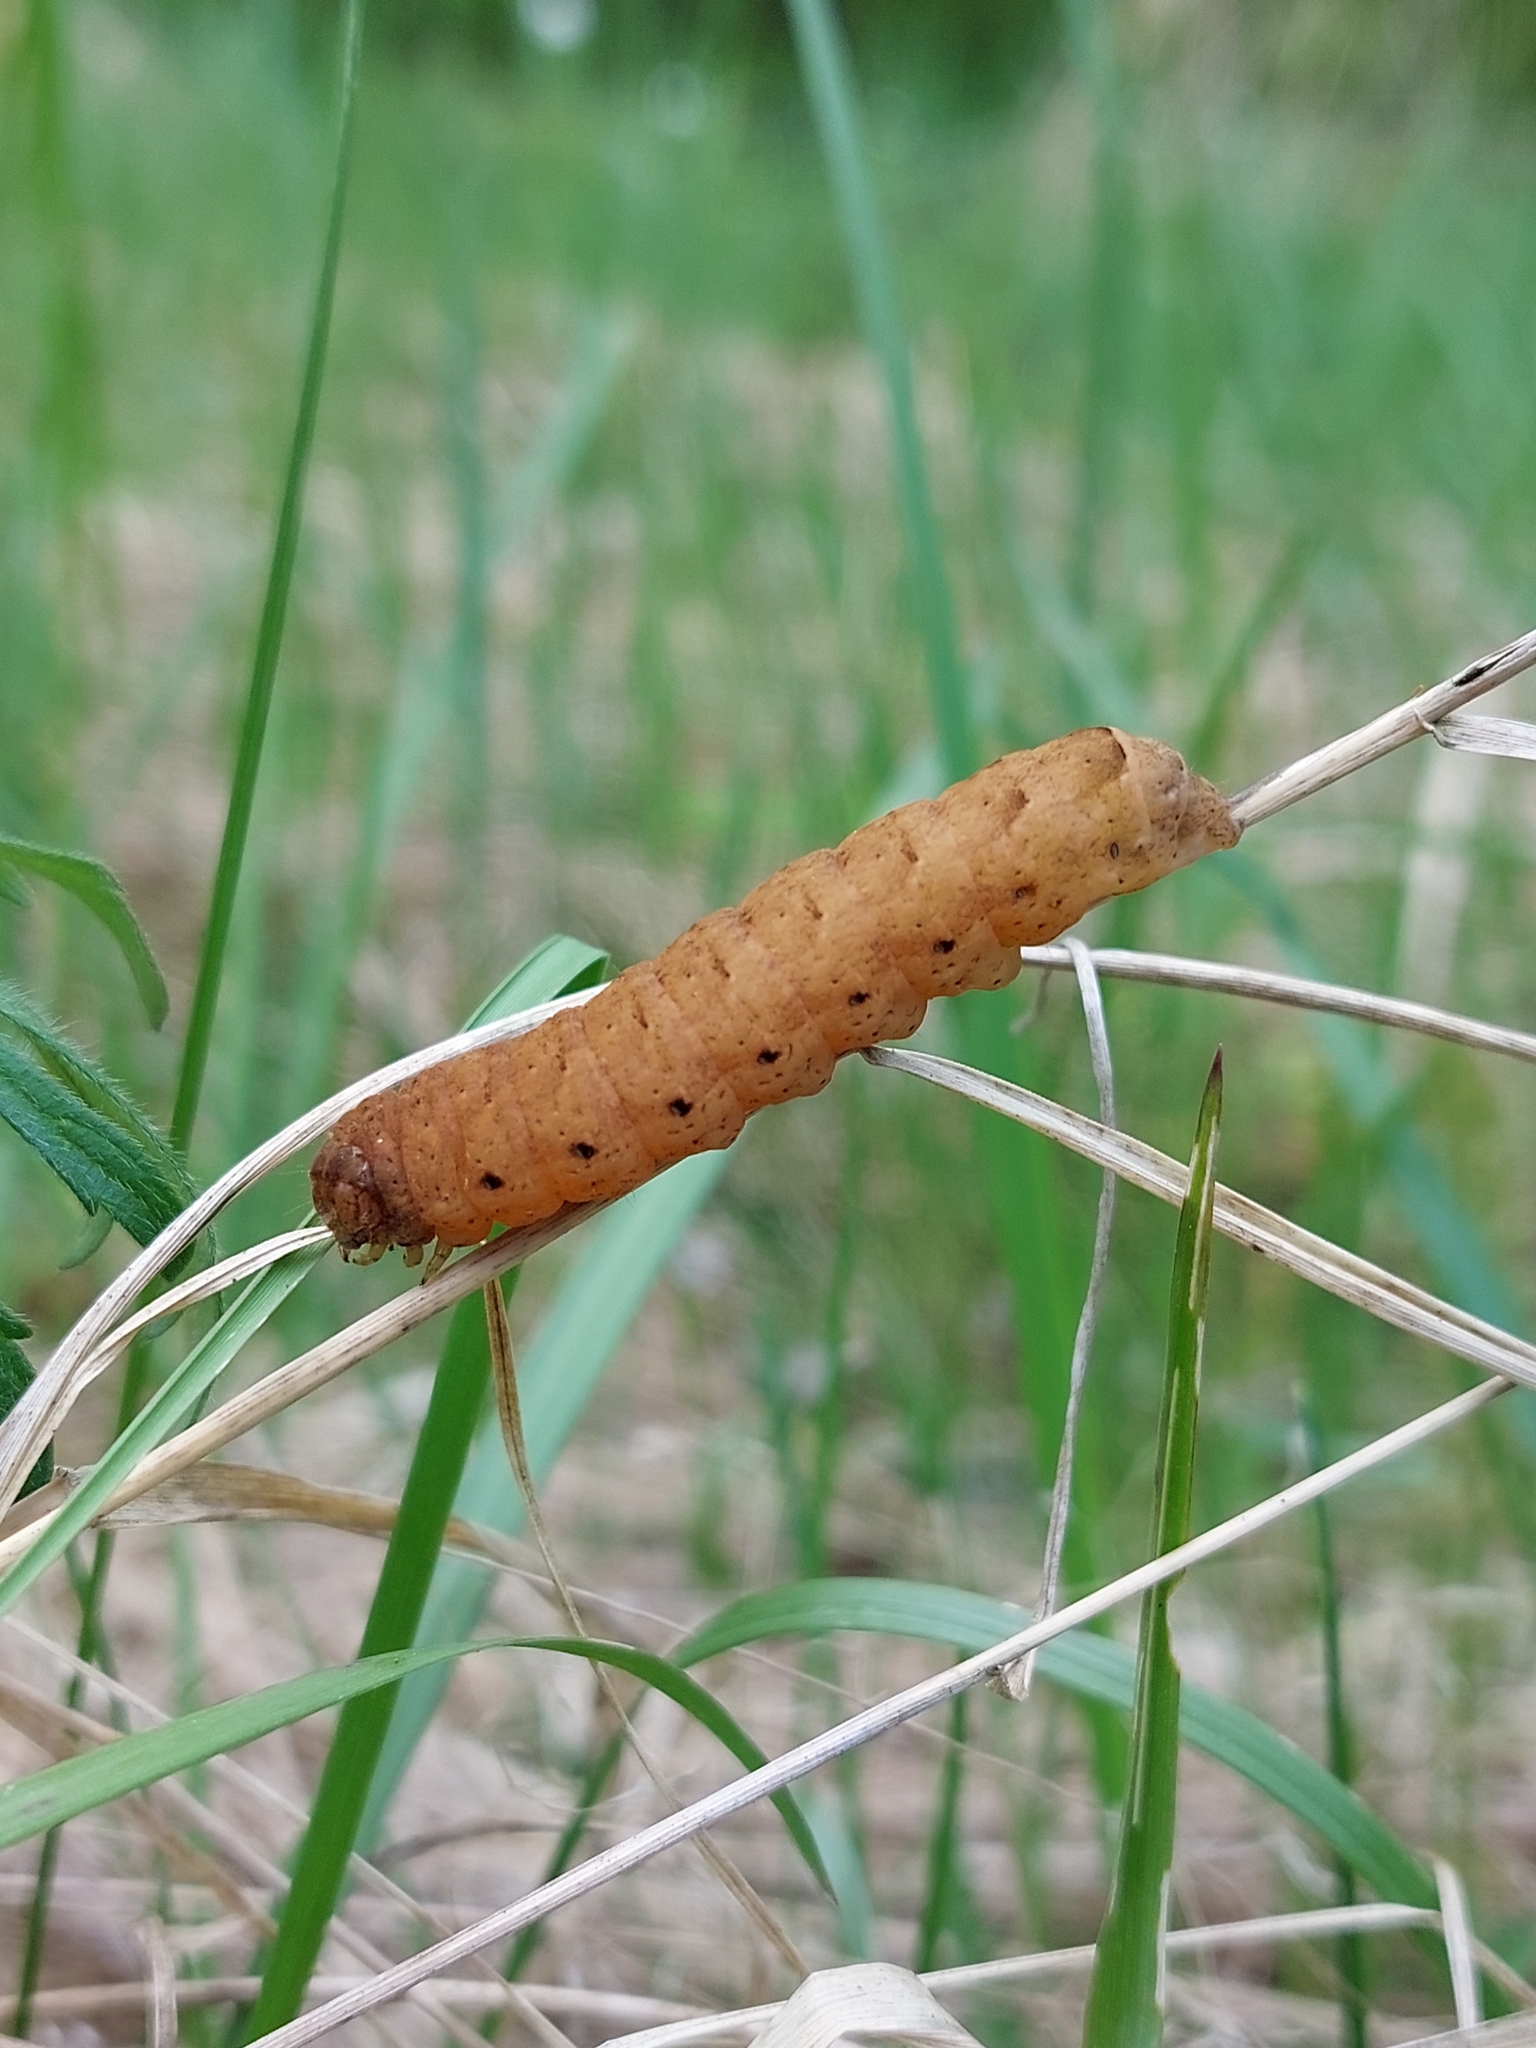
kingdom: Animalia
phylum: Arthropoda
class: Insecta
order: Lepidoptera
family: Noctuidae
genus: Noctua
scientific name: Noctua fimbriata
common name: Broad-bordered yellow underwing
